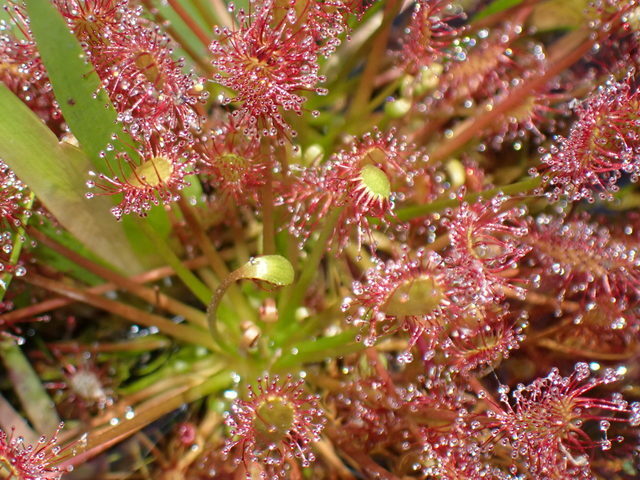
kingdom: Plantae
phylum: Tracheophyta
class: Magnoliopsida
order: Caryophyllales
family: Droseraceae
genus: Drosera
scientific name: Drosera intermedia
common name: Oblong-leaved sundew
